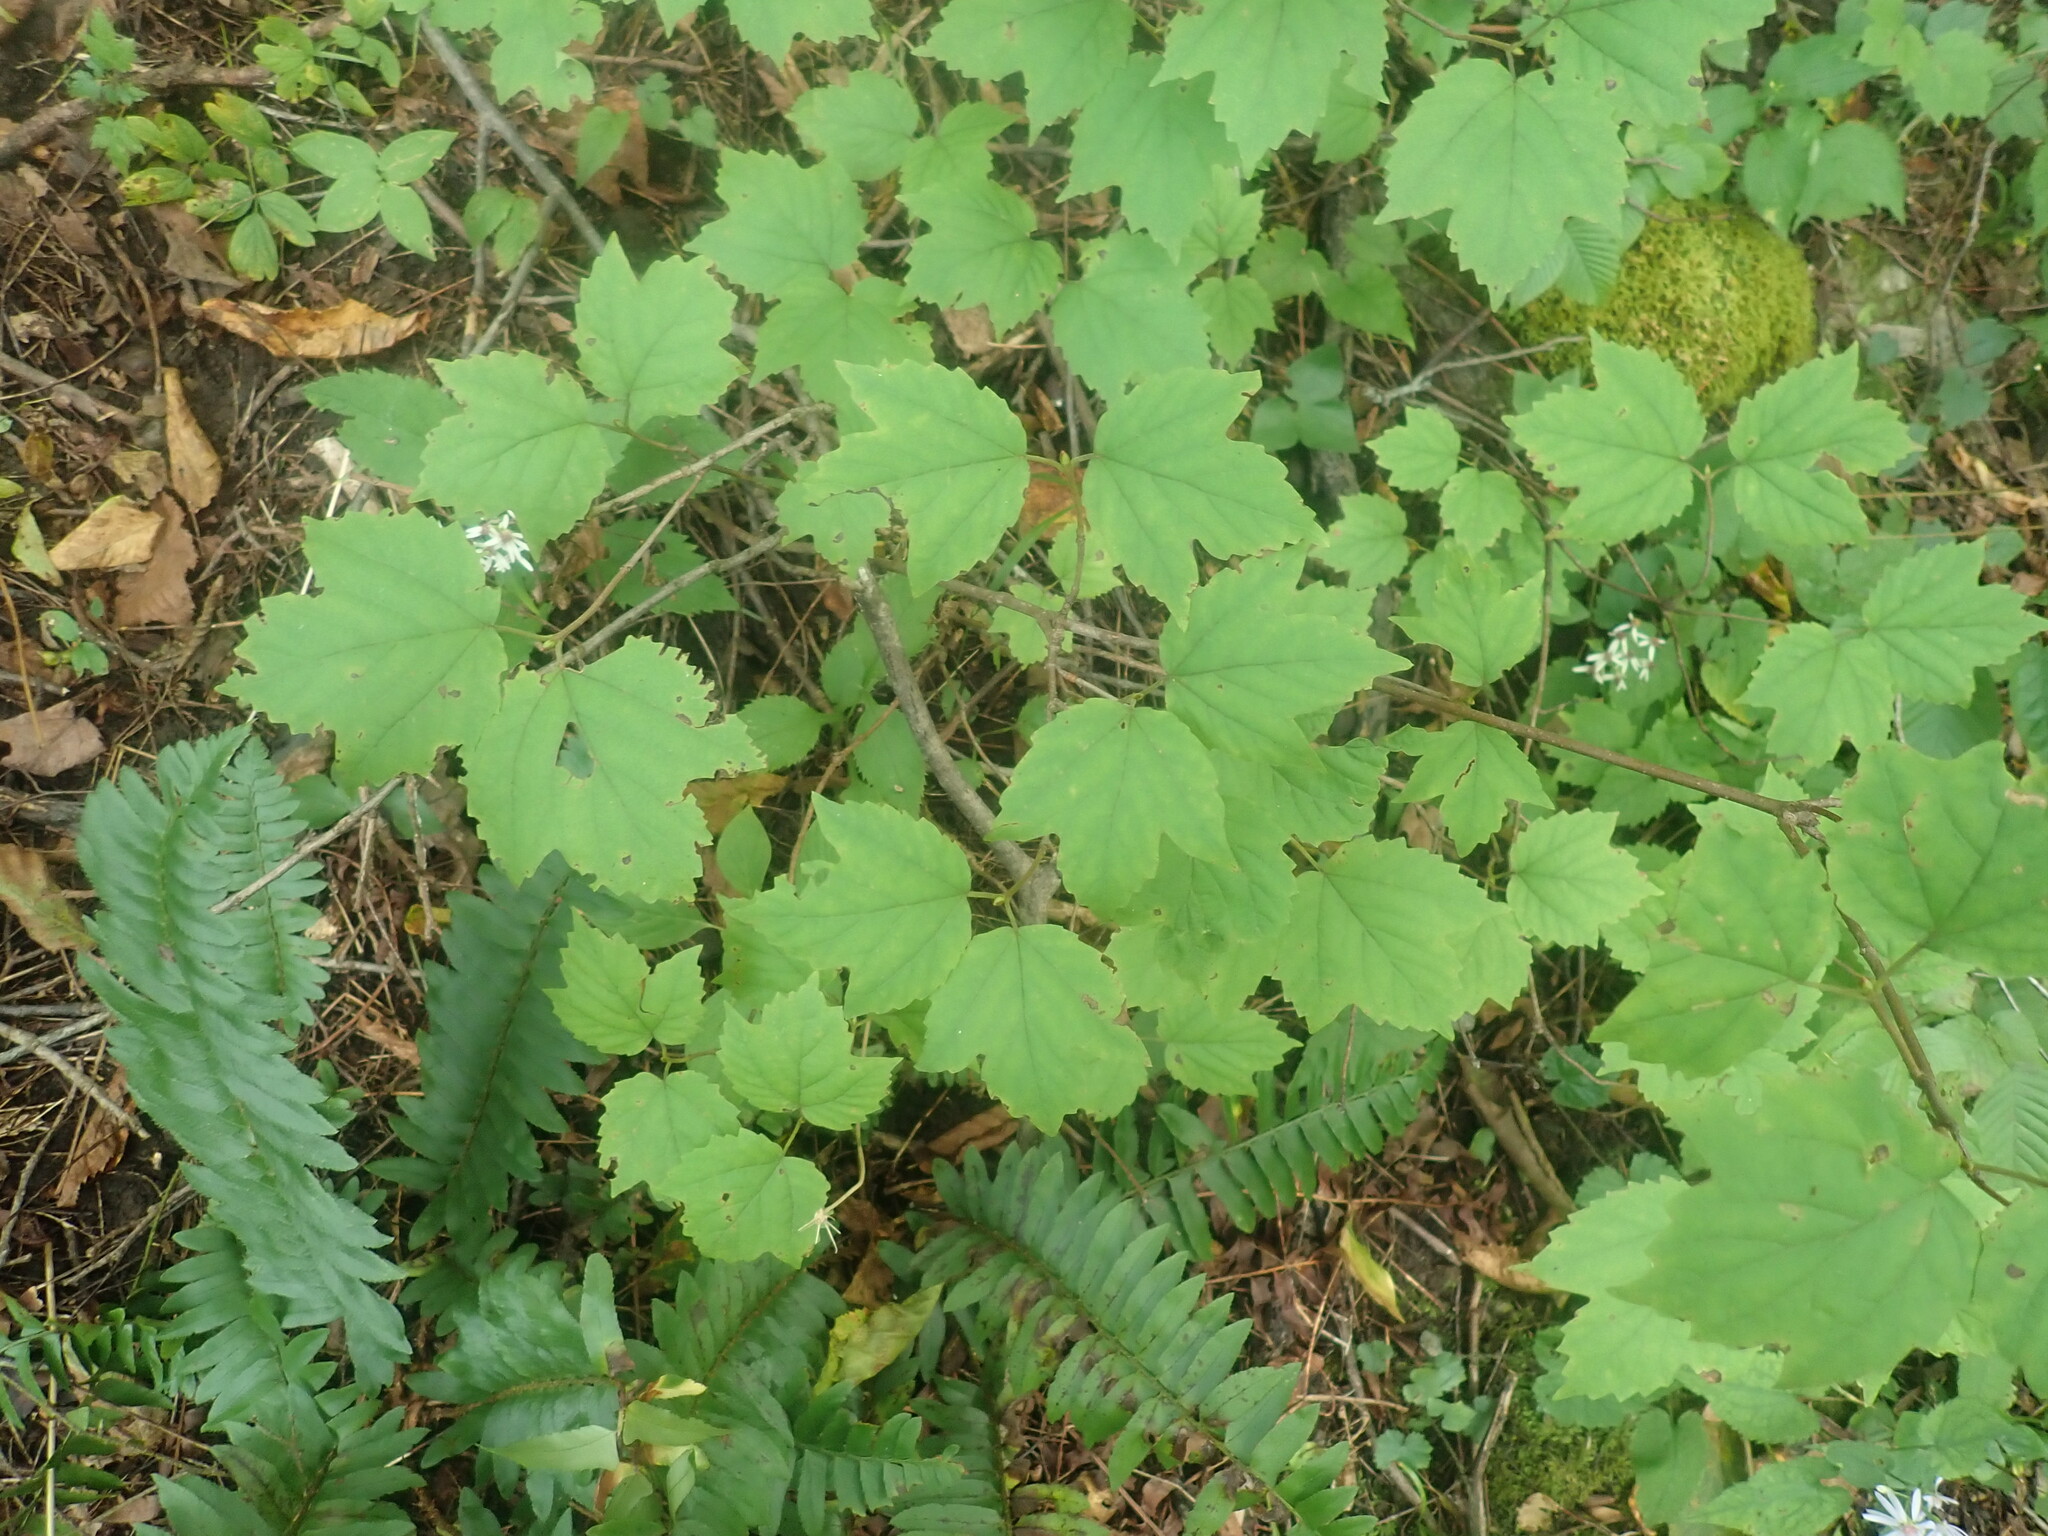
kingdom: Plantae
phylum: Tracheophyta
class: Magnoliopsida
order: Dipsacales
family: Viburnaceae
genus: Viburnum
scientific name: Viburnum acerifolium
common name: Dockmackie
